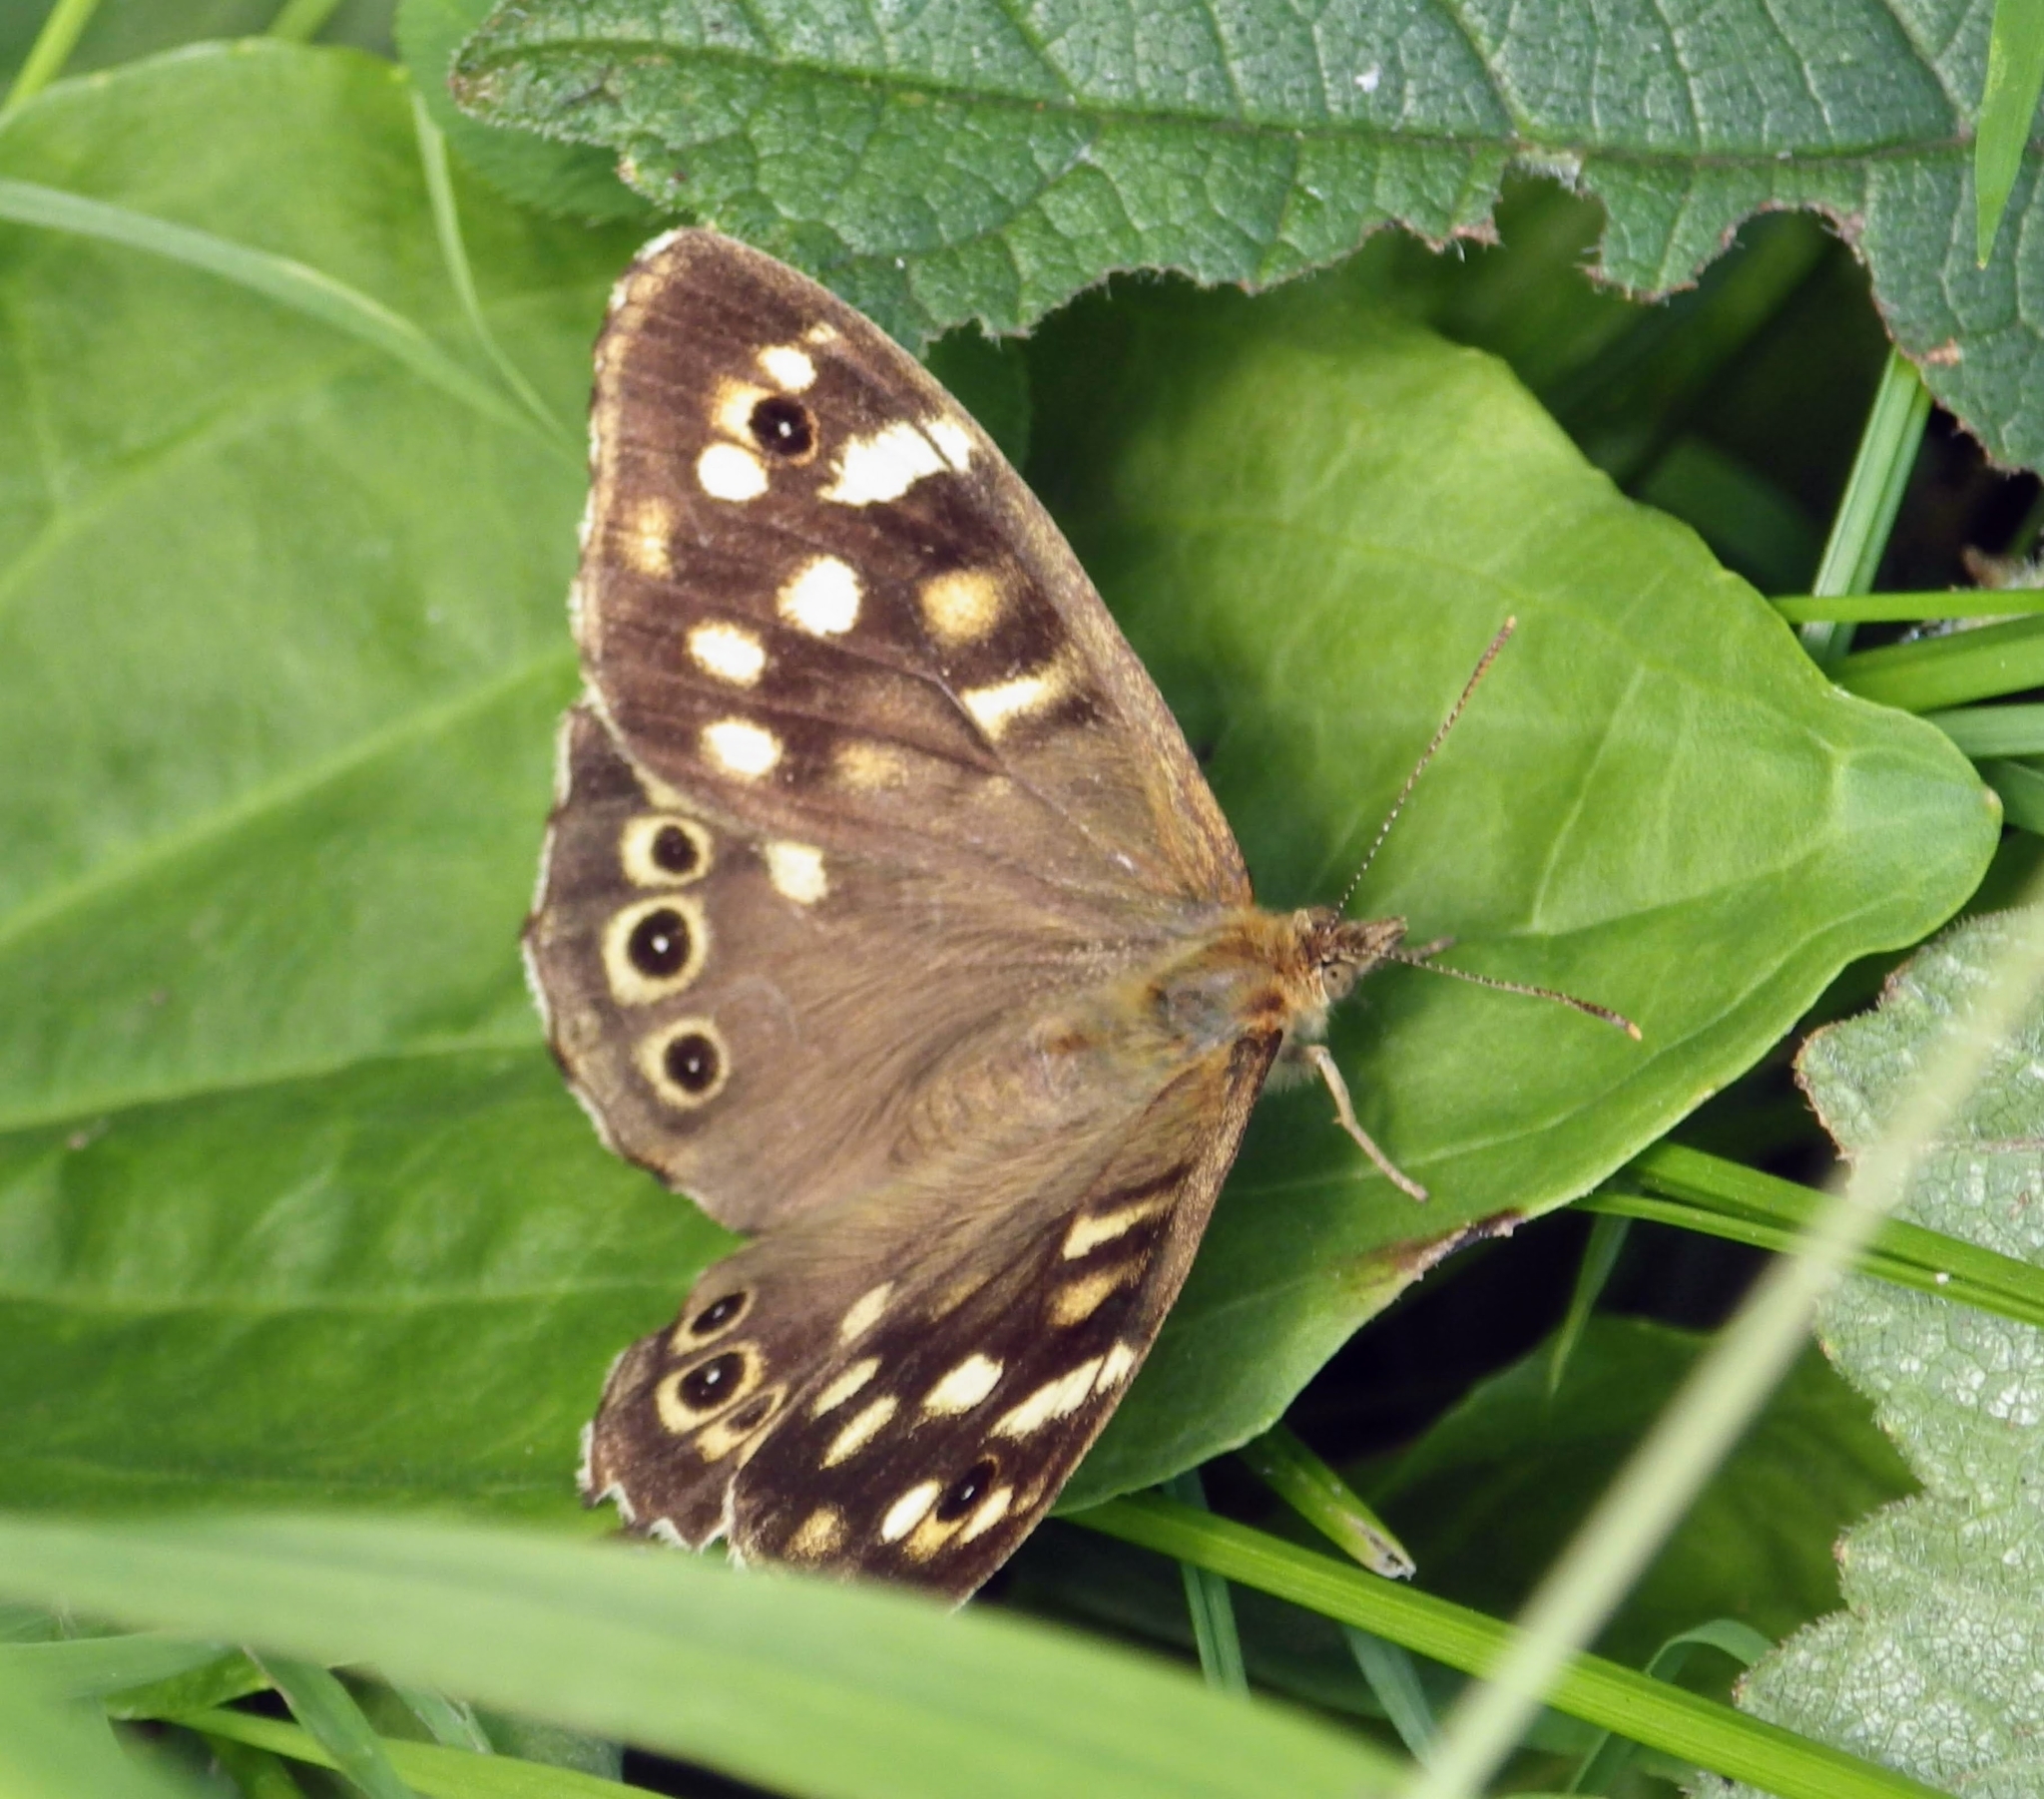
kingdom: Animalia
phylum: Arthropoda
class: Insecta
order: Lepidoptera
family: Nymphalidae
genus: Pararge
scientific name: Pararge aegeria
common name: Speckled wood
